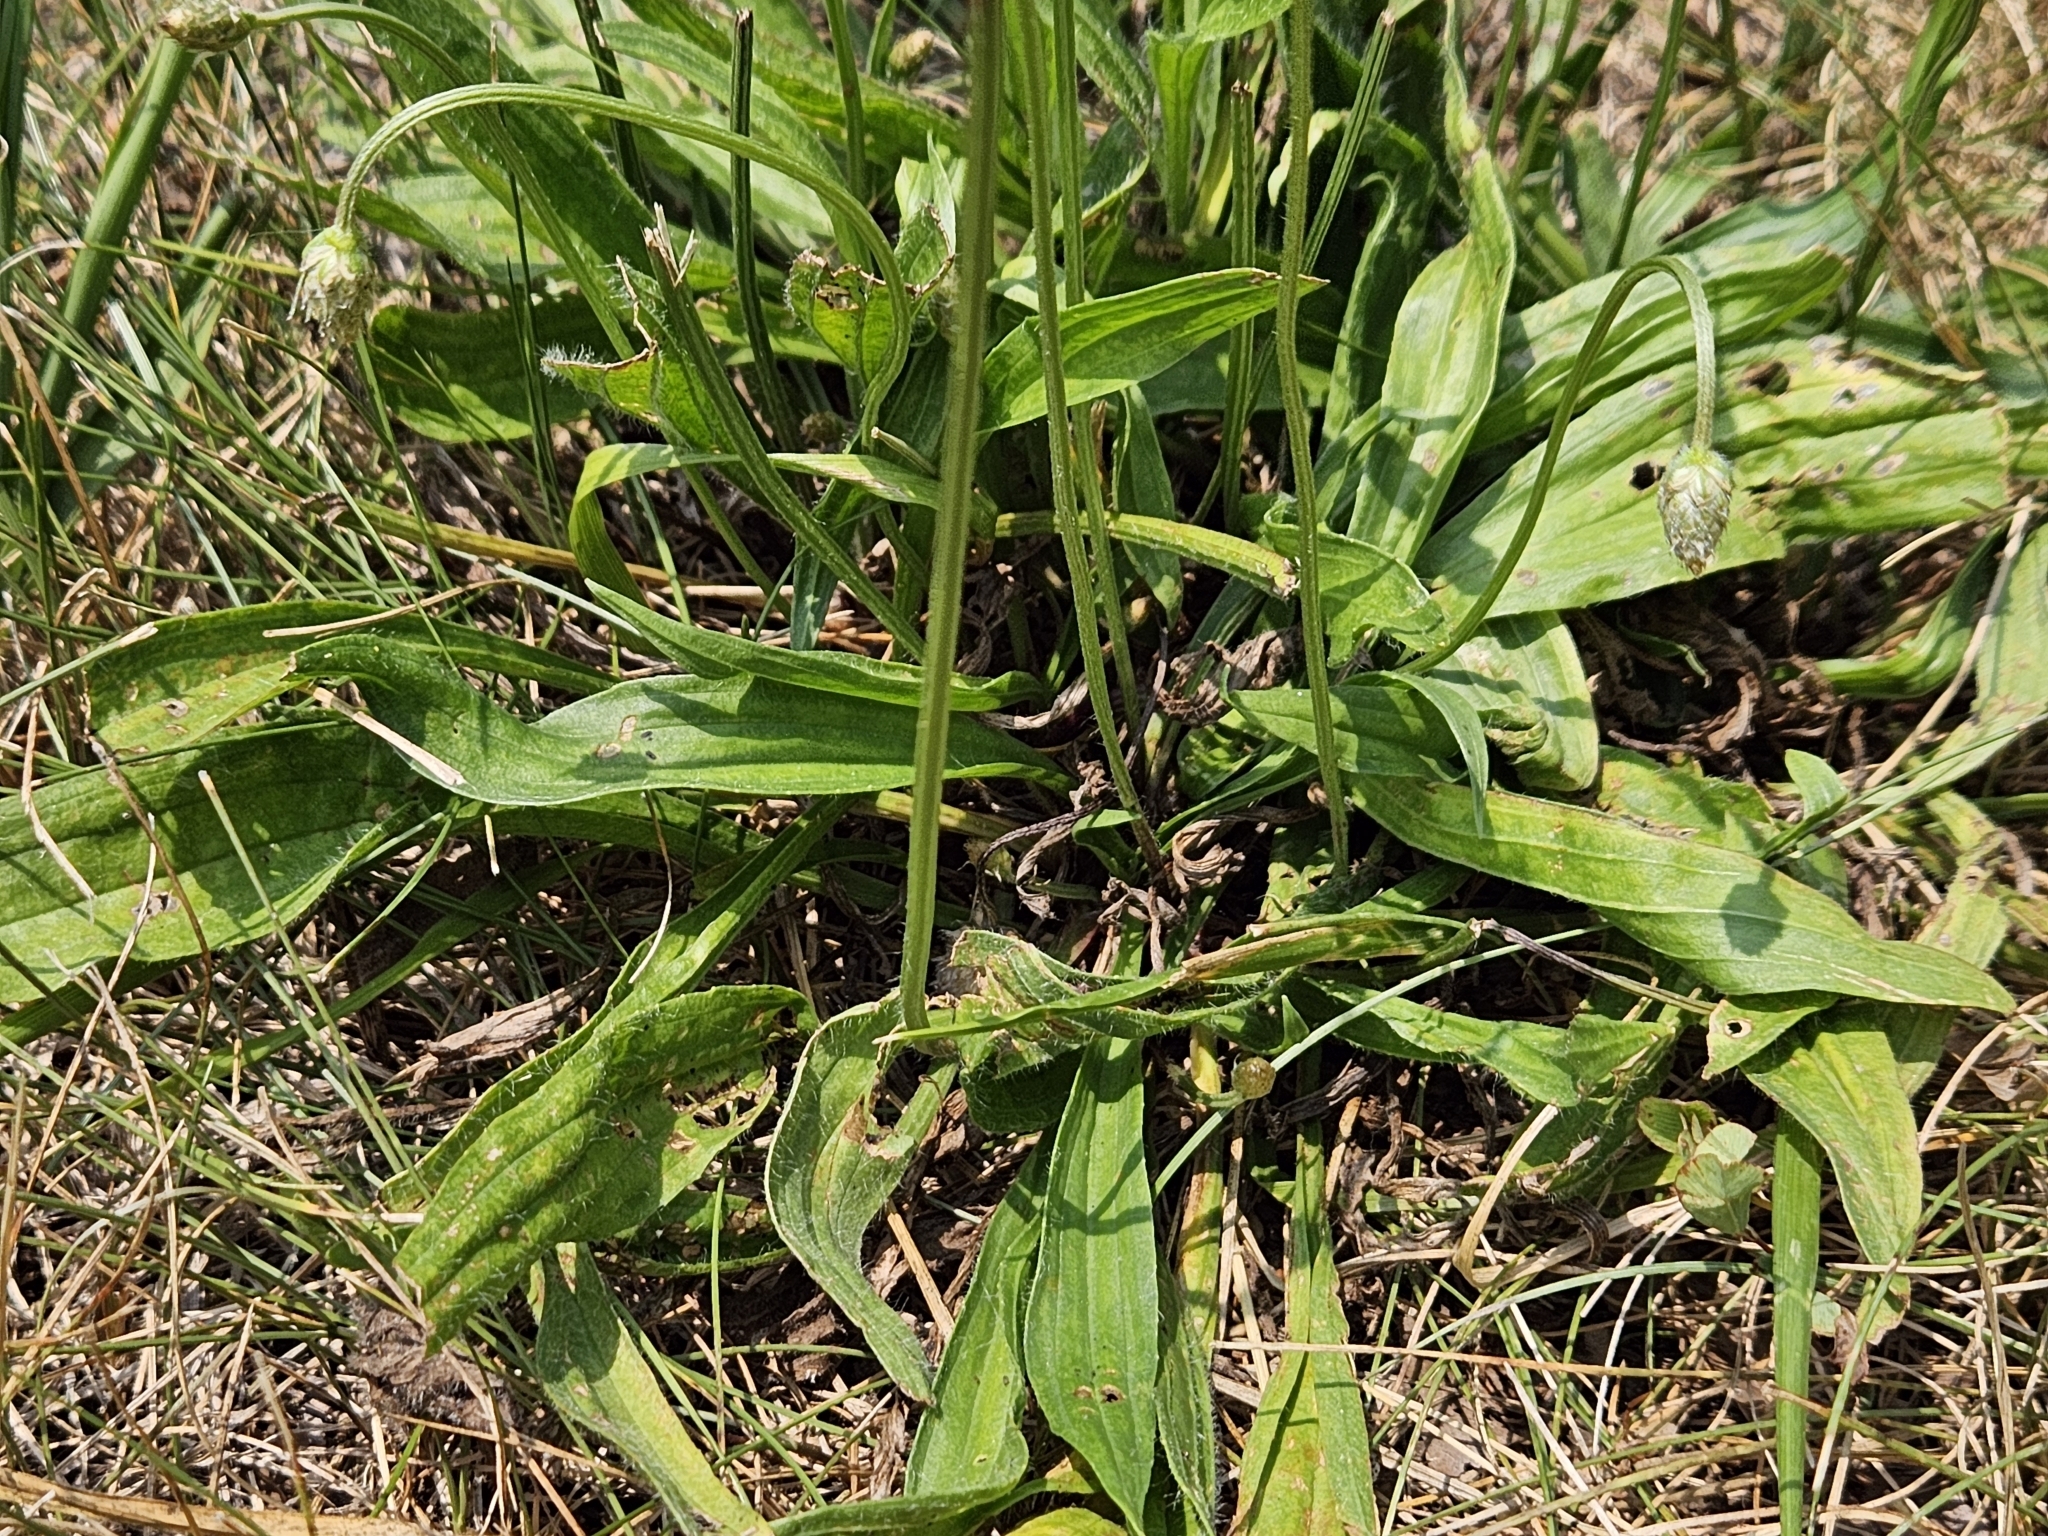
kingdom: Plantae
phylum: Tracheophyta
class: Magnoliopsida
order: Lamiales
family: Plantaginaceae
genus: Plantago
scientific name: Plantago lanceolata
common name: Ribwort plantain
